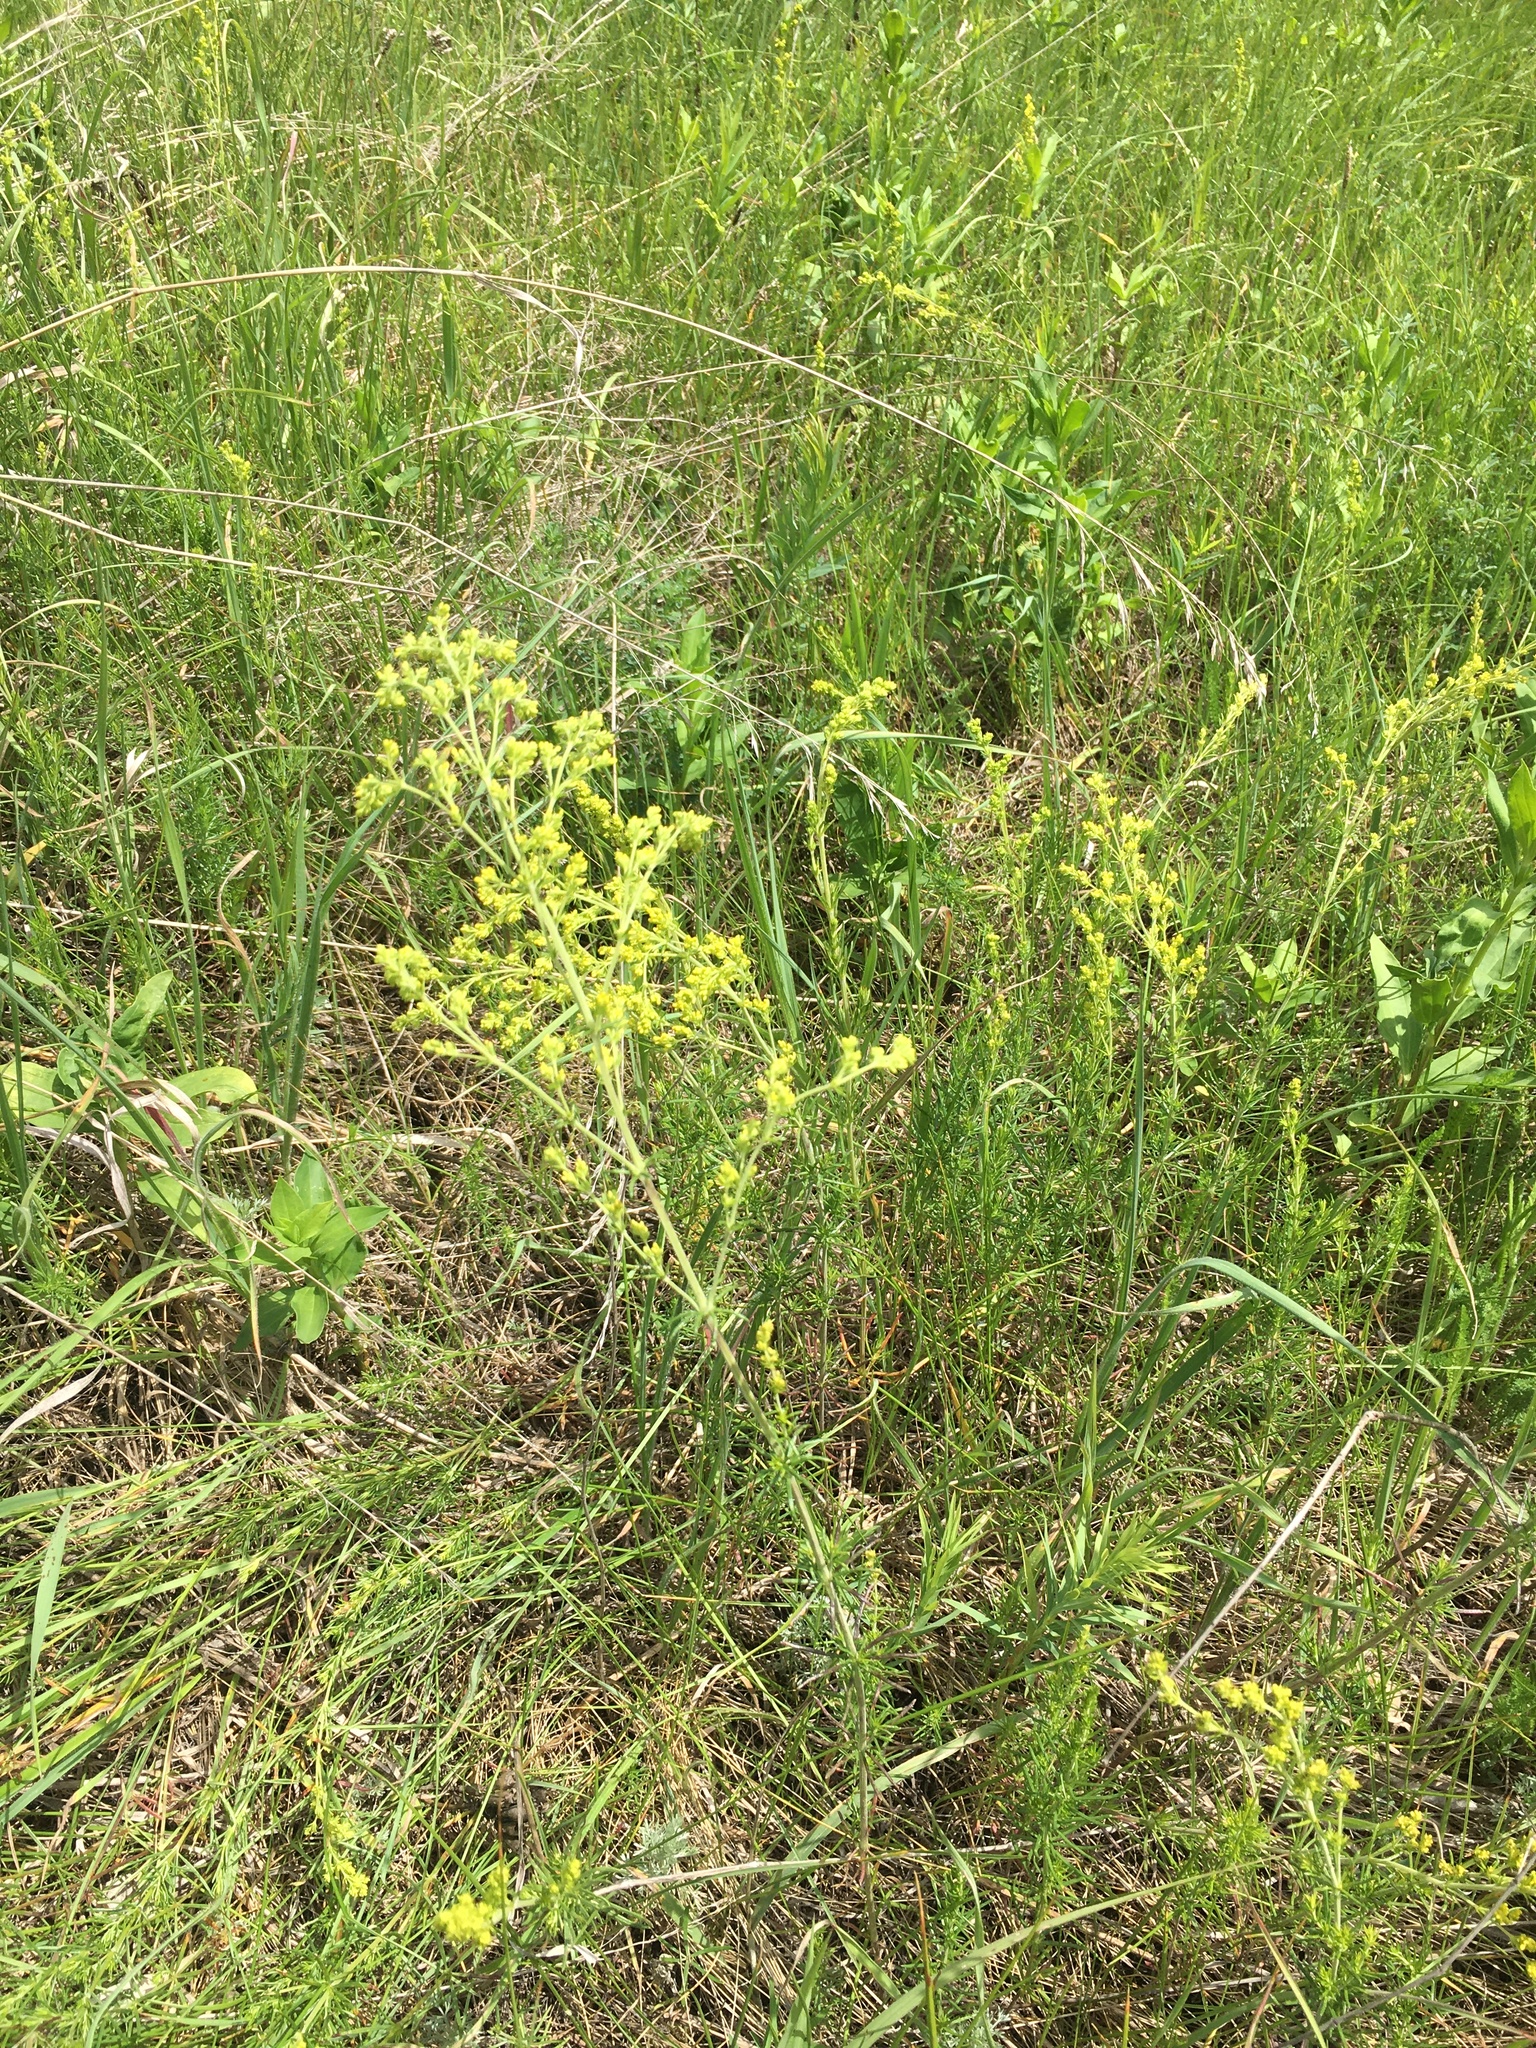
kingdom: Plantae
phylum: Tracheophyta
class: Magnoliopsida
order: Gentianales
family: Rubiaceae
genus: Galium
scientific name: Galium verum
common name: Lady's bedstraw
